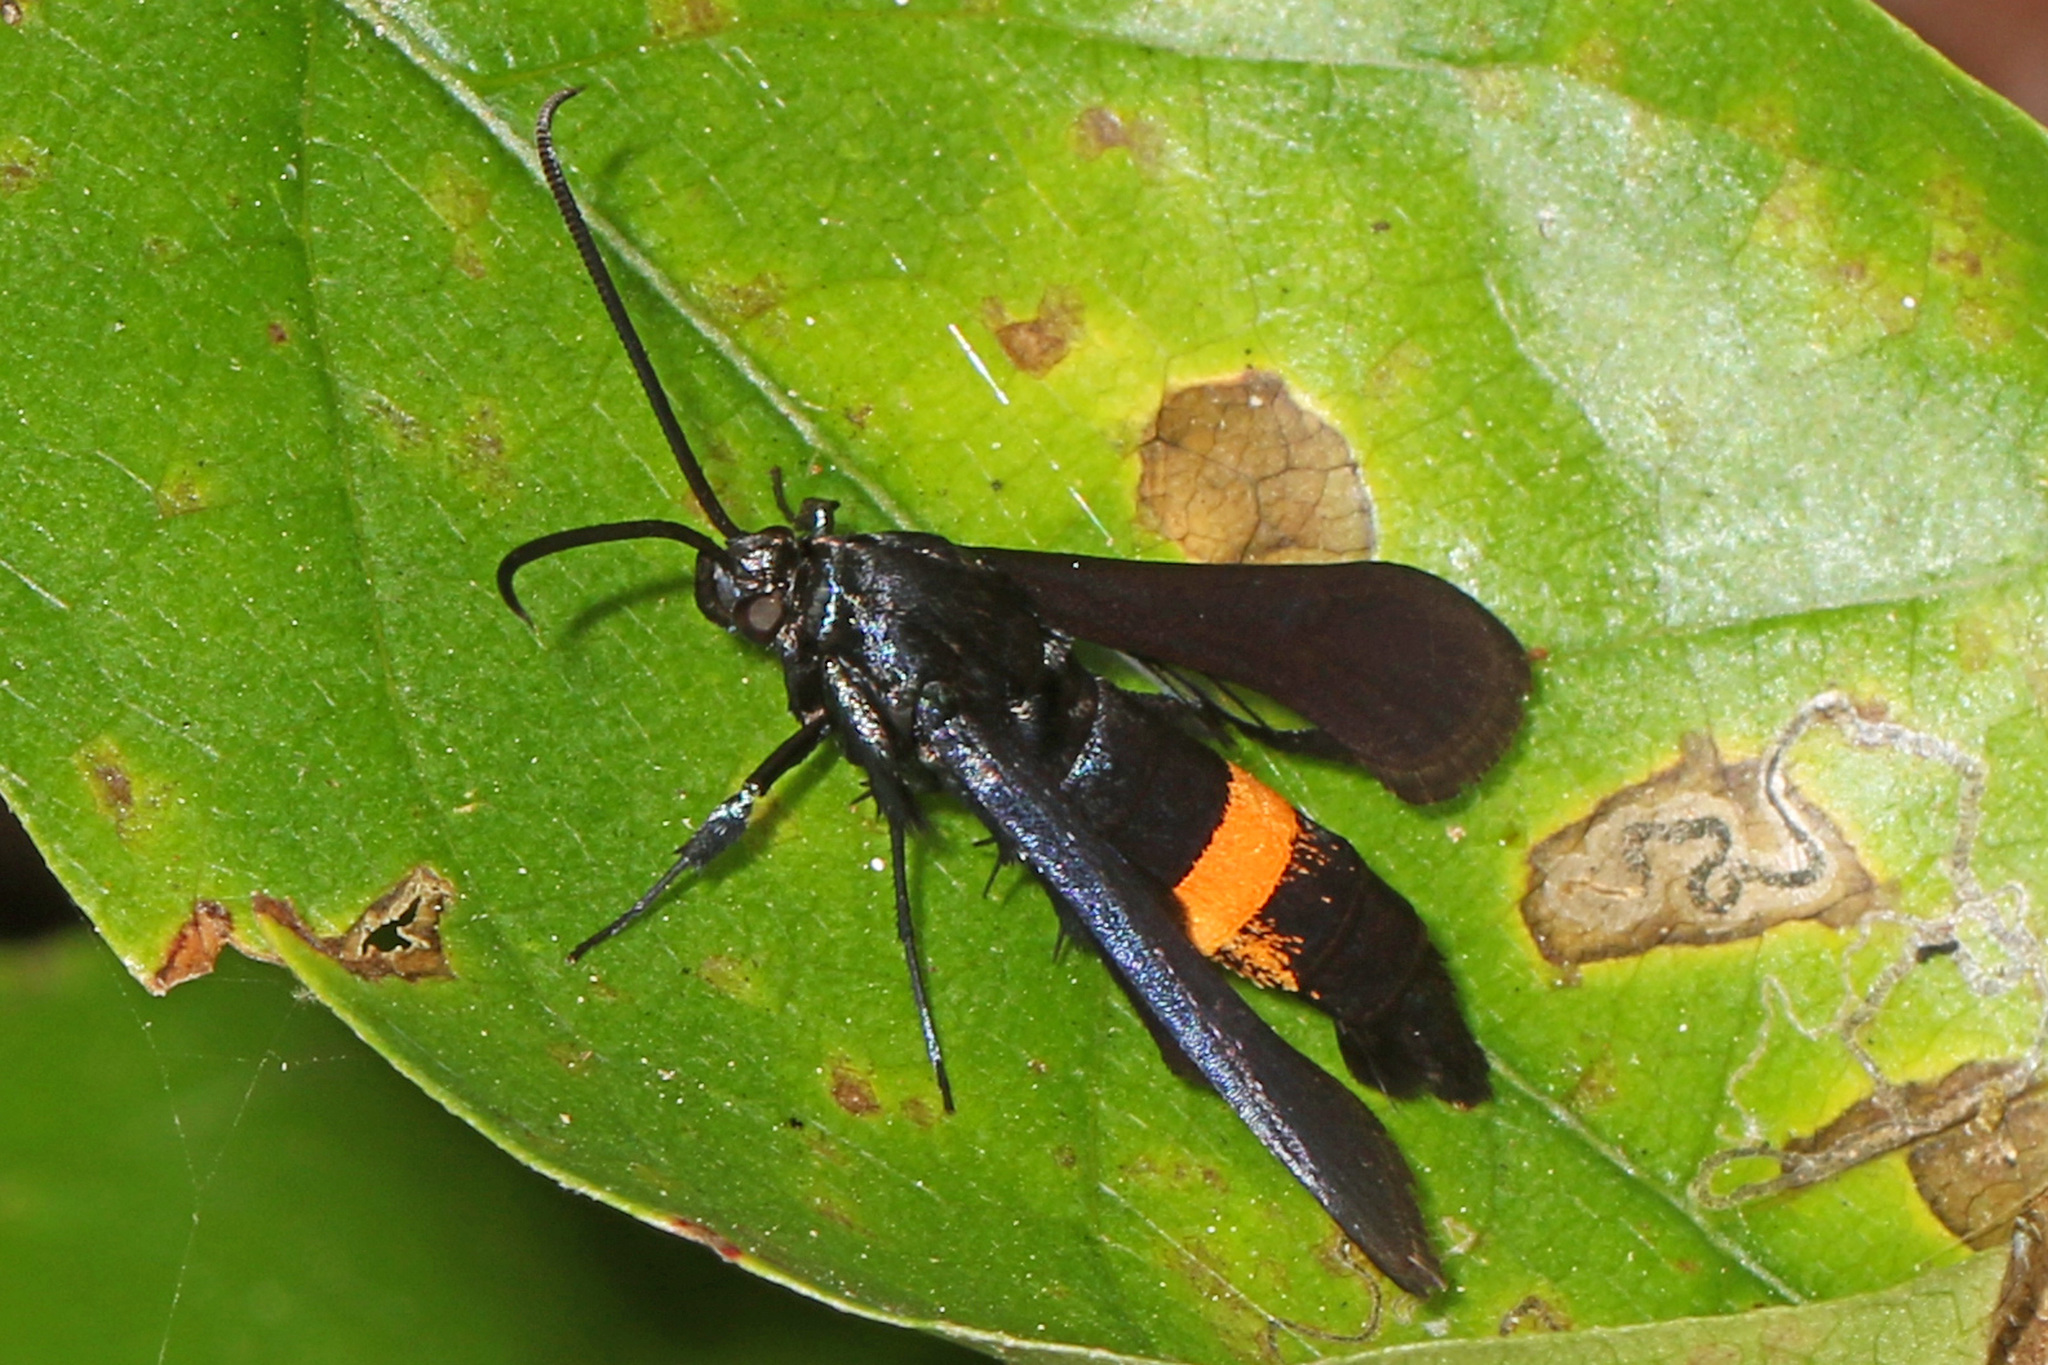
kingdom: Animalia
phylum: Arthropoda
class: Insecta
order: Lepidoptera
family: Sesiidae
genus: Synanthedon
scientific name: Synanthedon exitiosa
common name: Peachtree borer moth
